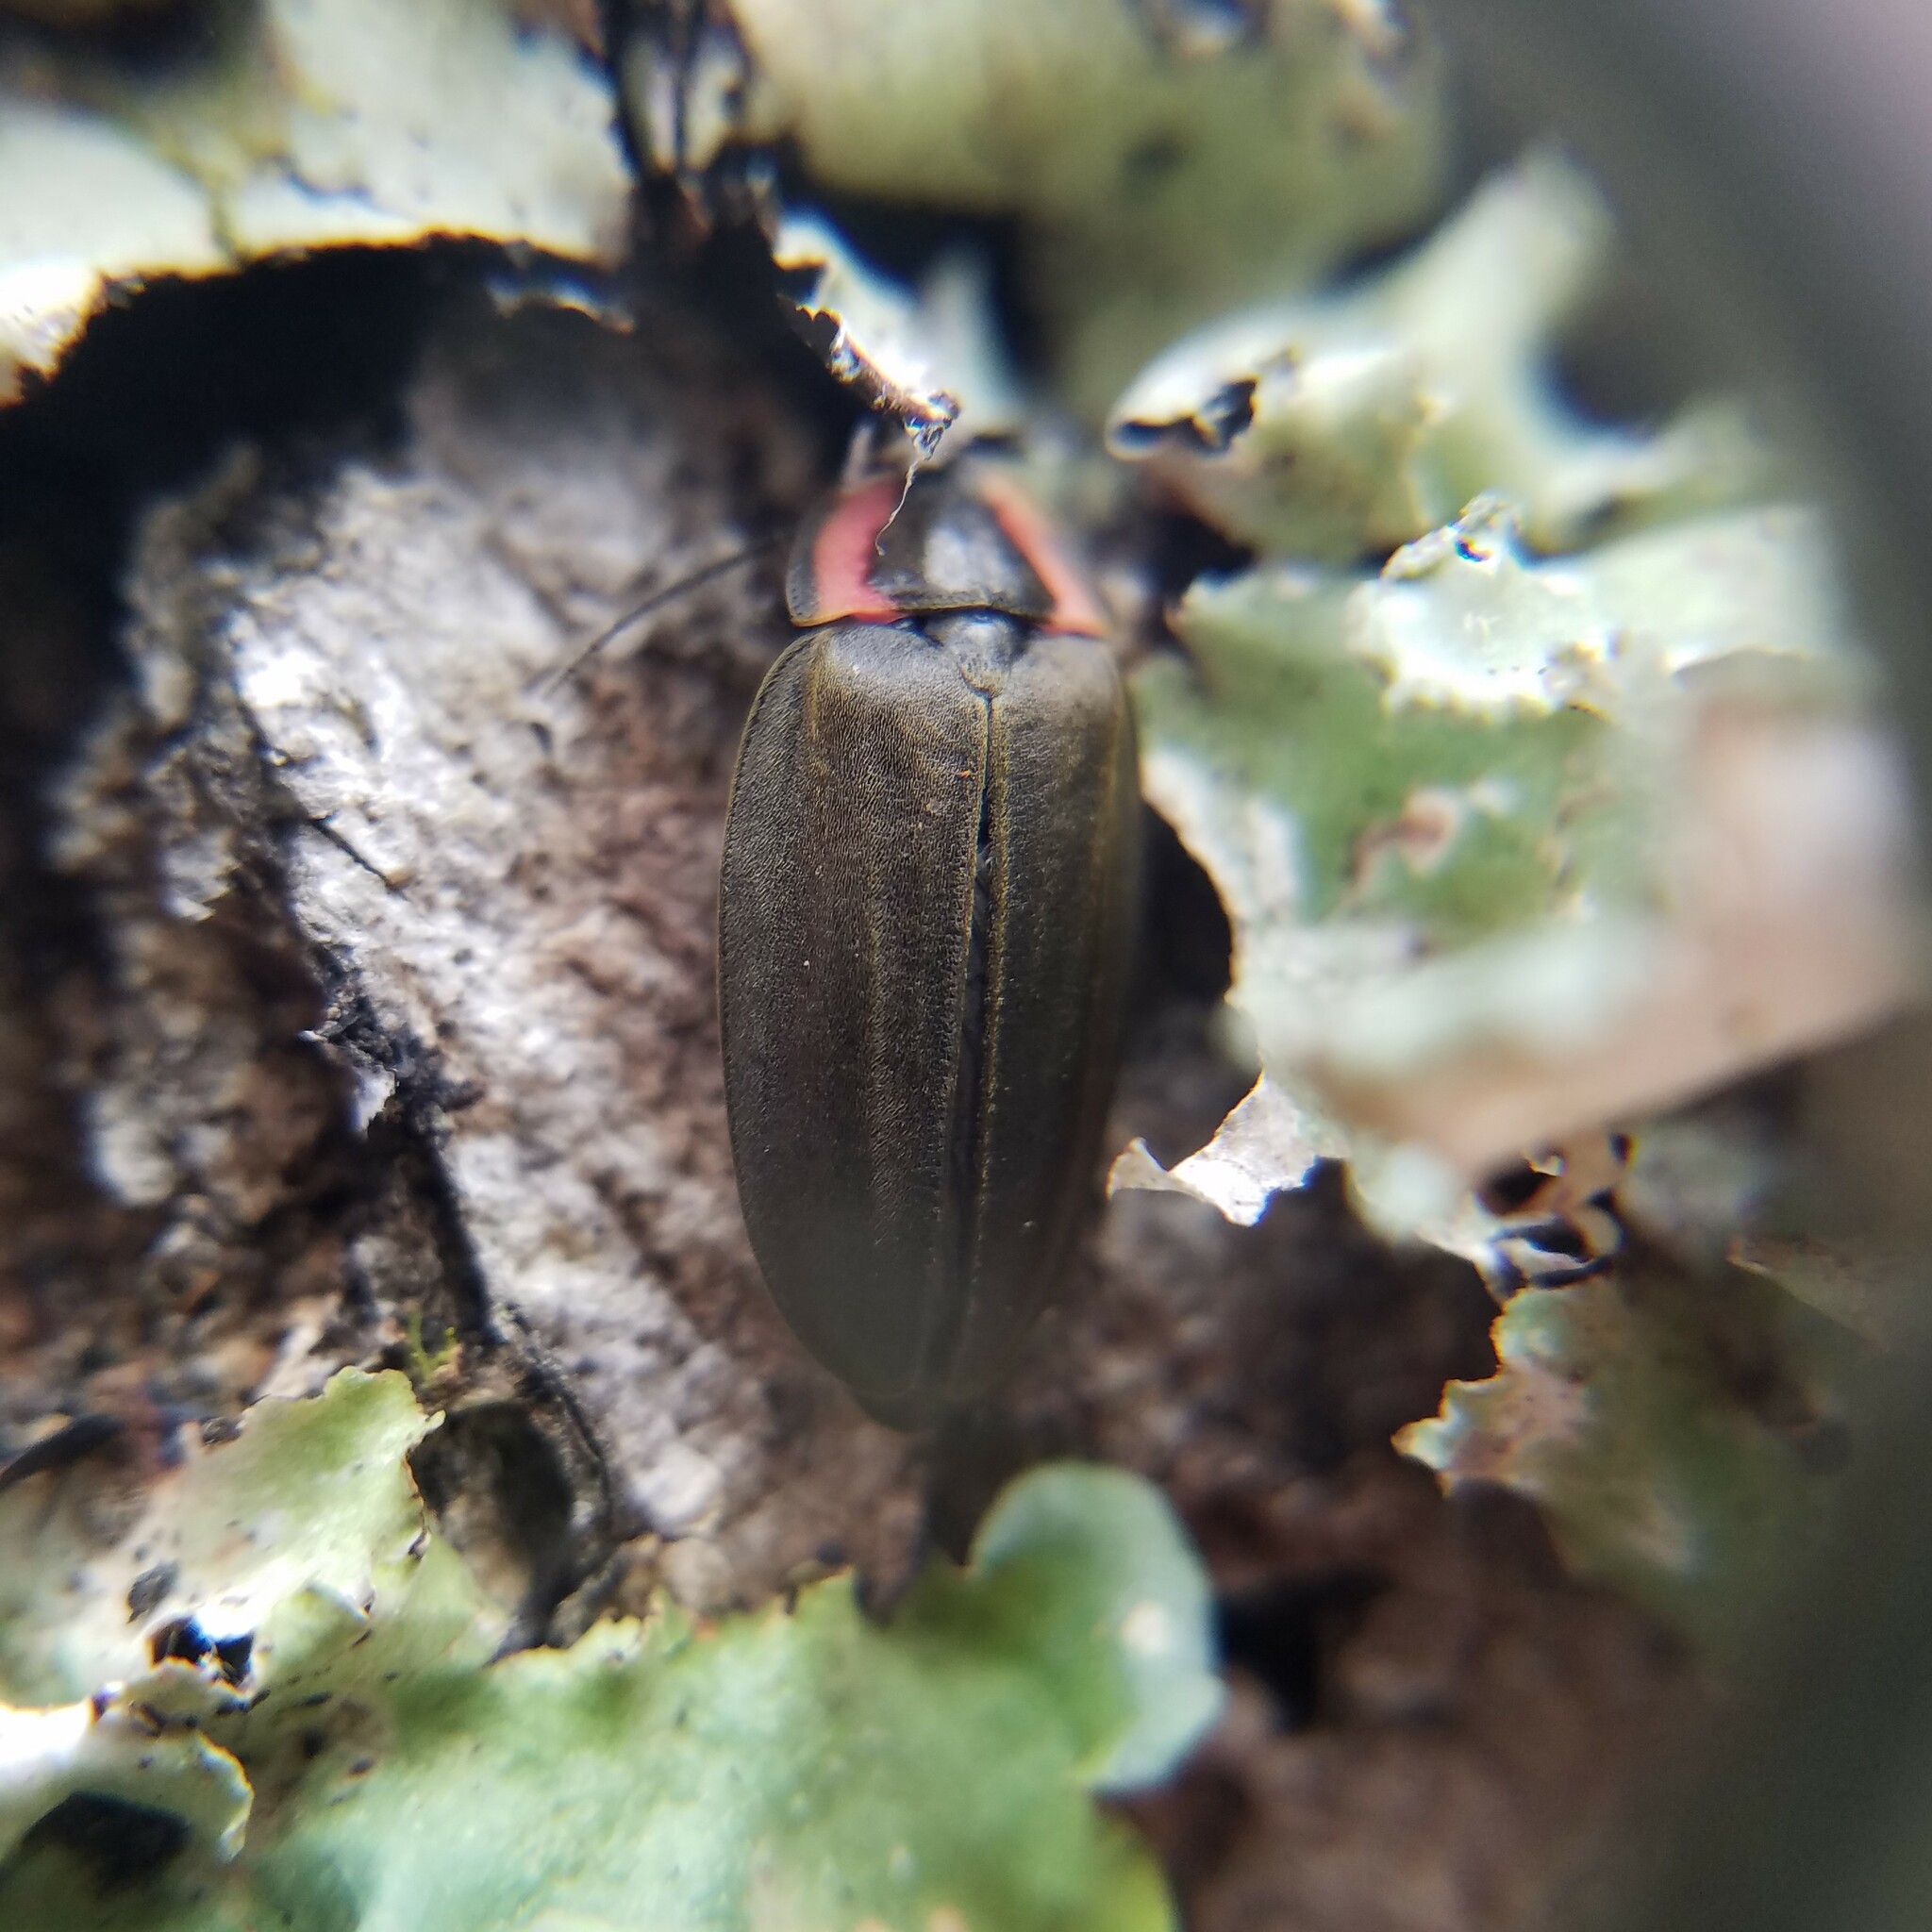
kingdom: Animalia
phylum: Arthropoda
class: Insecta
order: Coleoptera
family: Lampyridae
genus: Photinus
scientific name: Photinus corrusca
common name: Winter firefly
